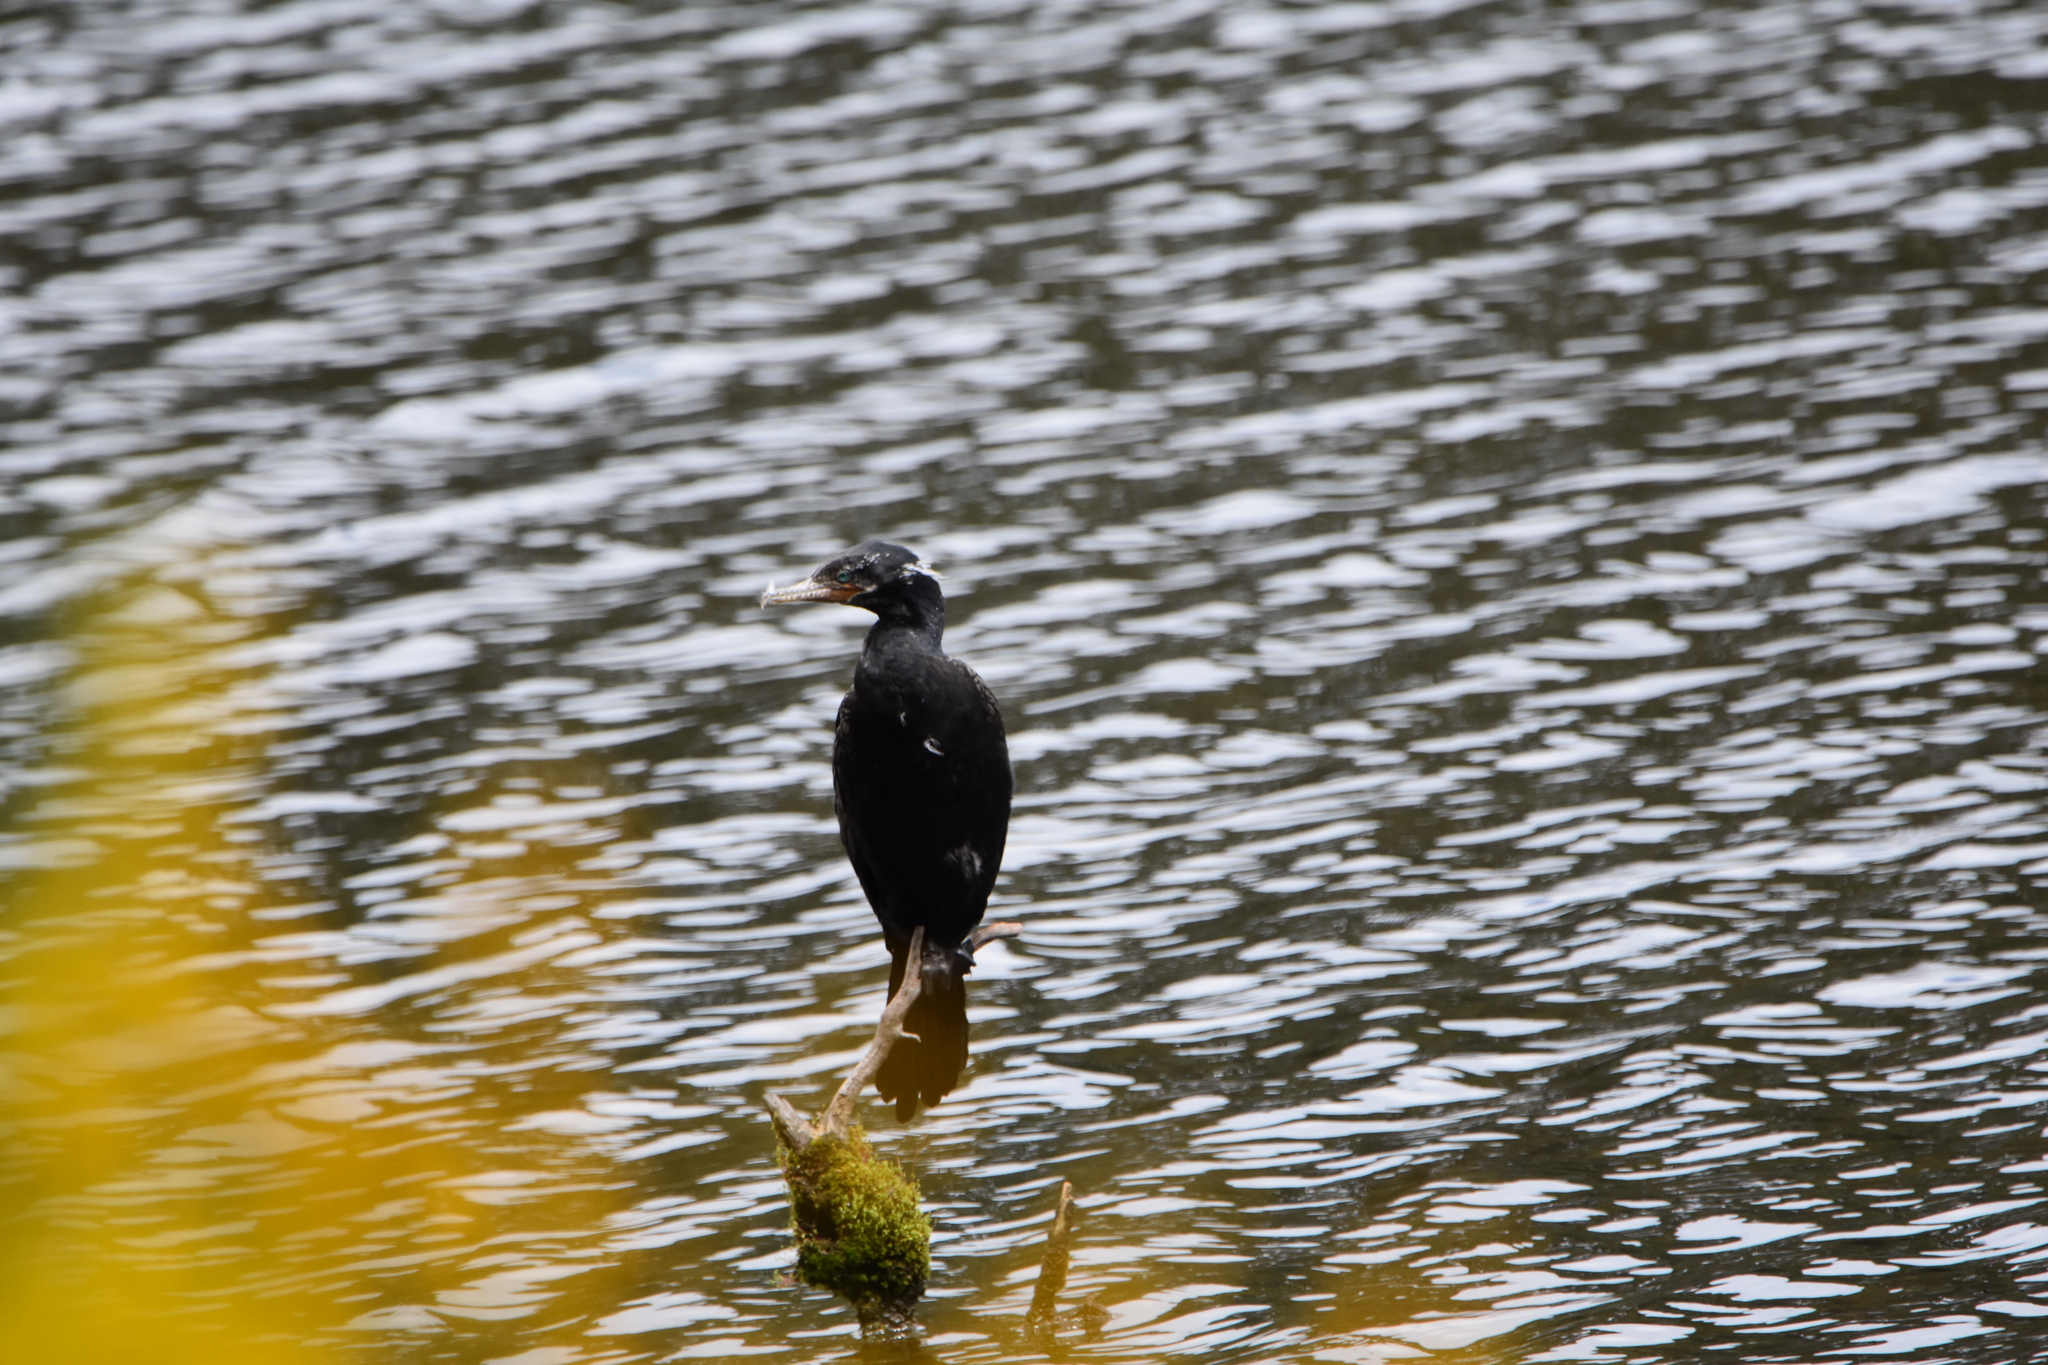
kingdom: Animalia
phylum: Chordata
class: Aves
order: Suliformes
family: Phalacrocoracidae
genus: Phalacrocorax
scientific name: Phalacrocorax brasilianus
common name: Neotropic cormorant
